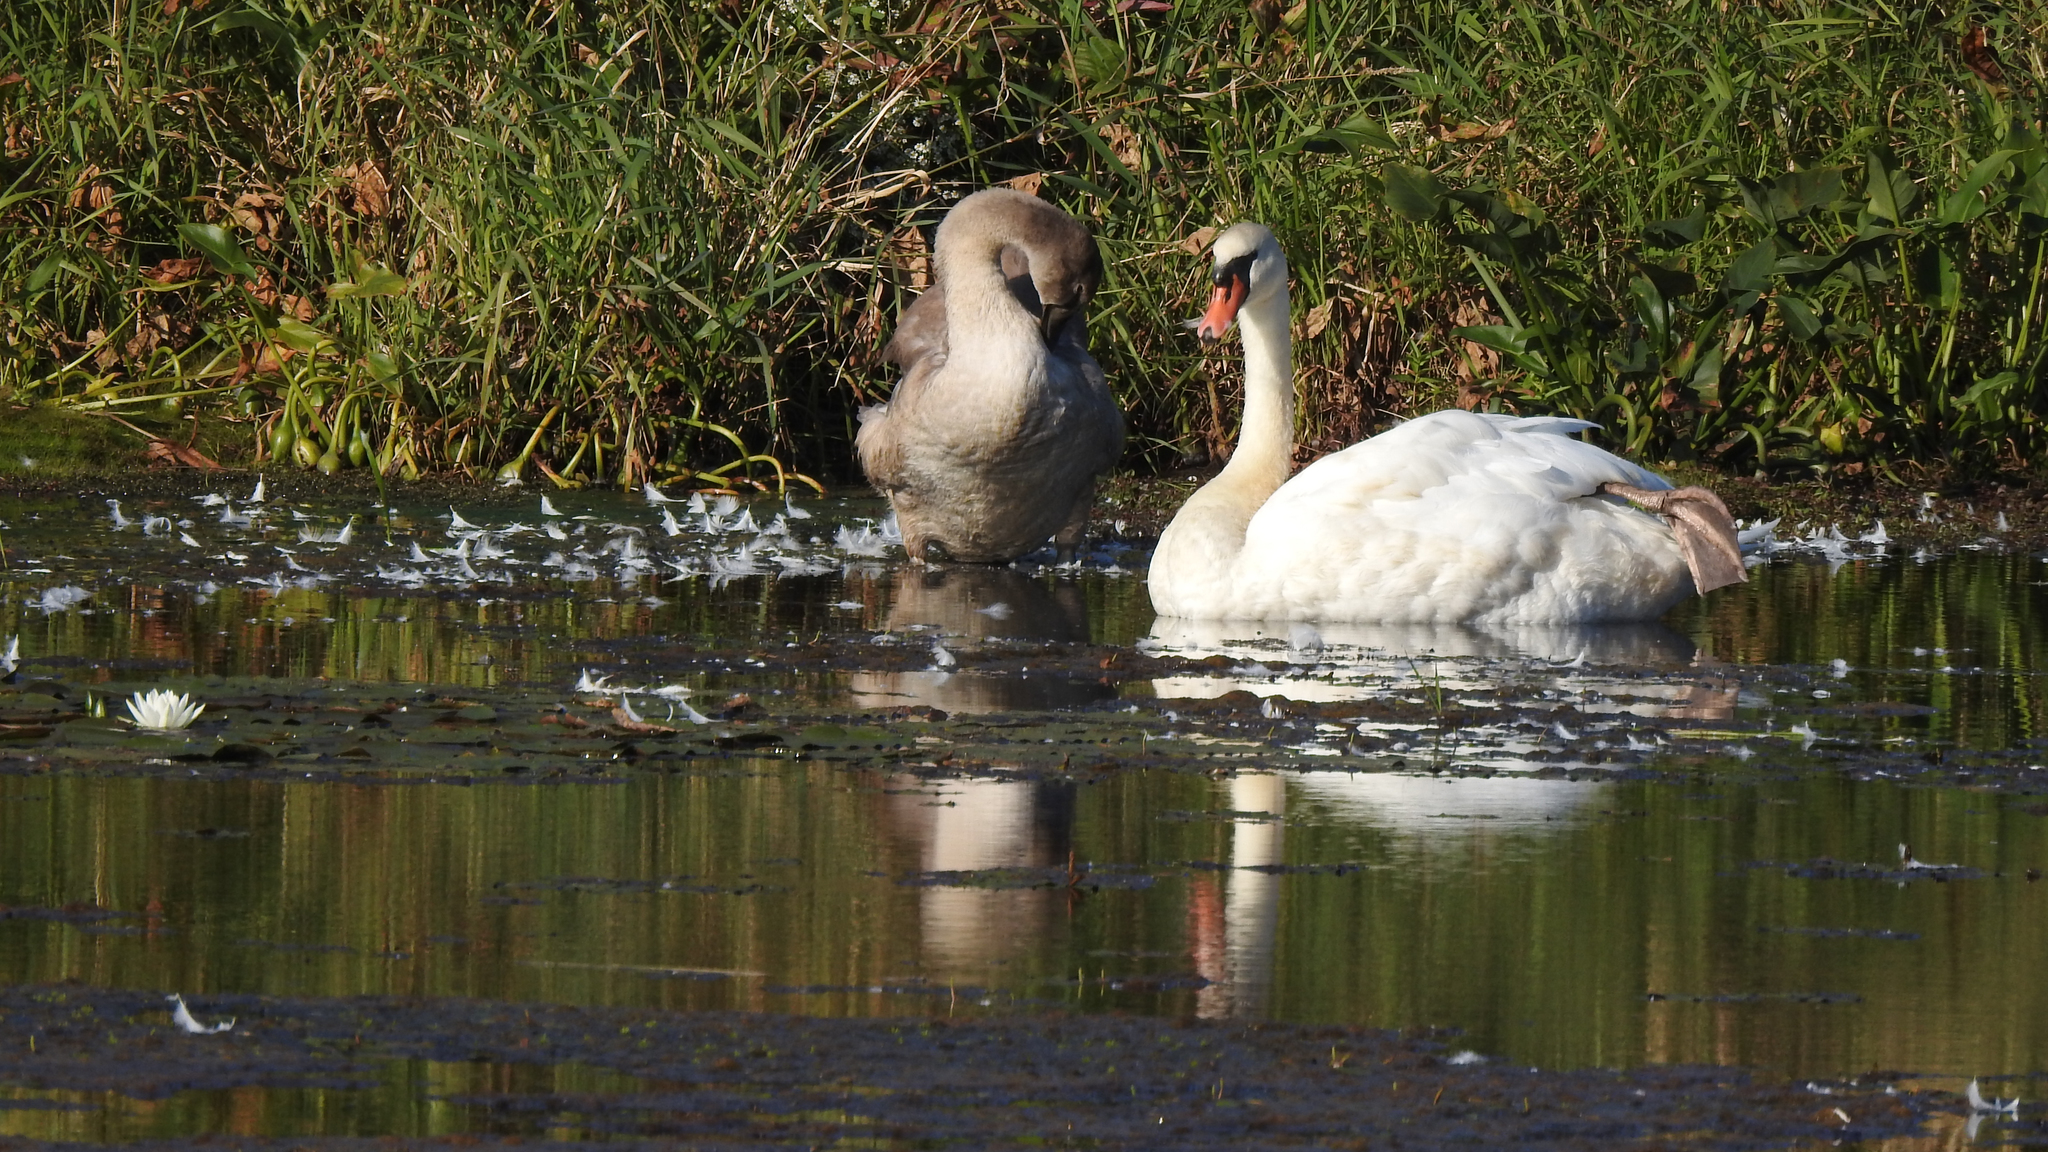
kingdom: Animalia
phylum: Chordata
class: Aves
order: Anseriformes
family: Anatidae
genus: Cygnus
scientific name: Cygnus olor
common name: Mute swan
